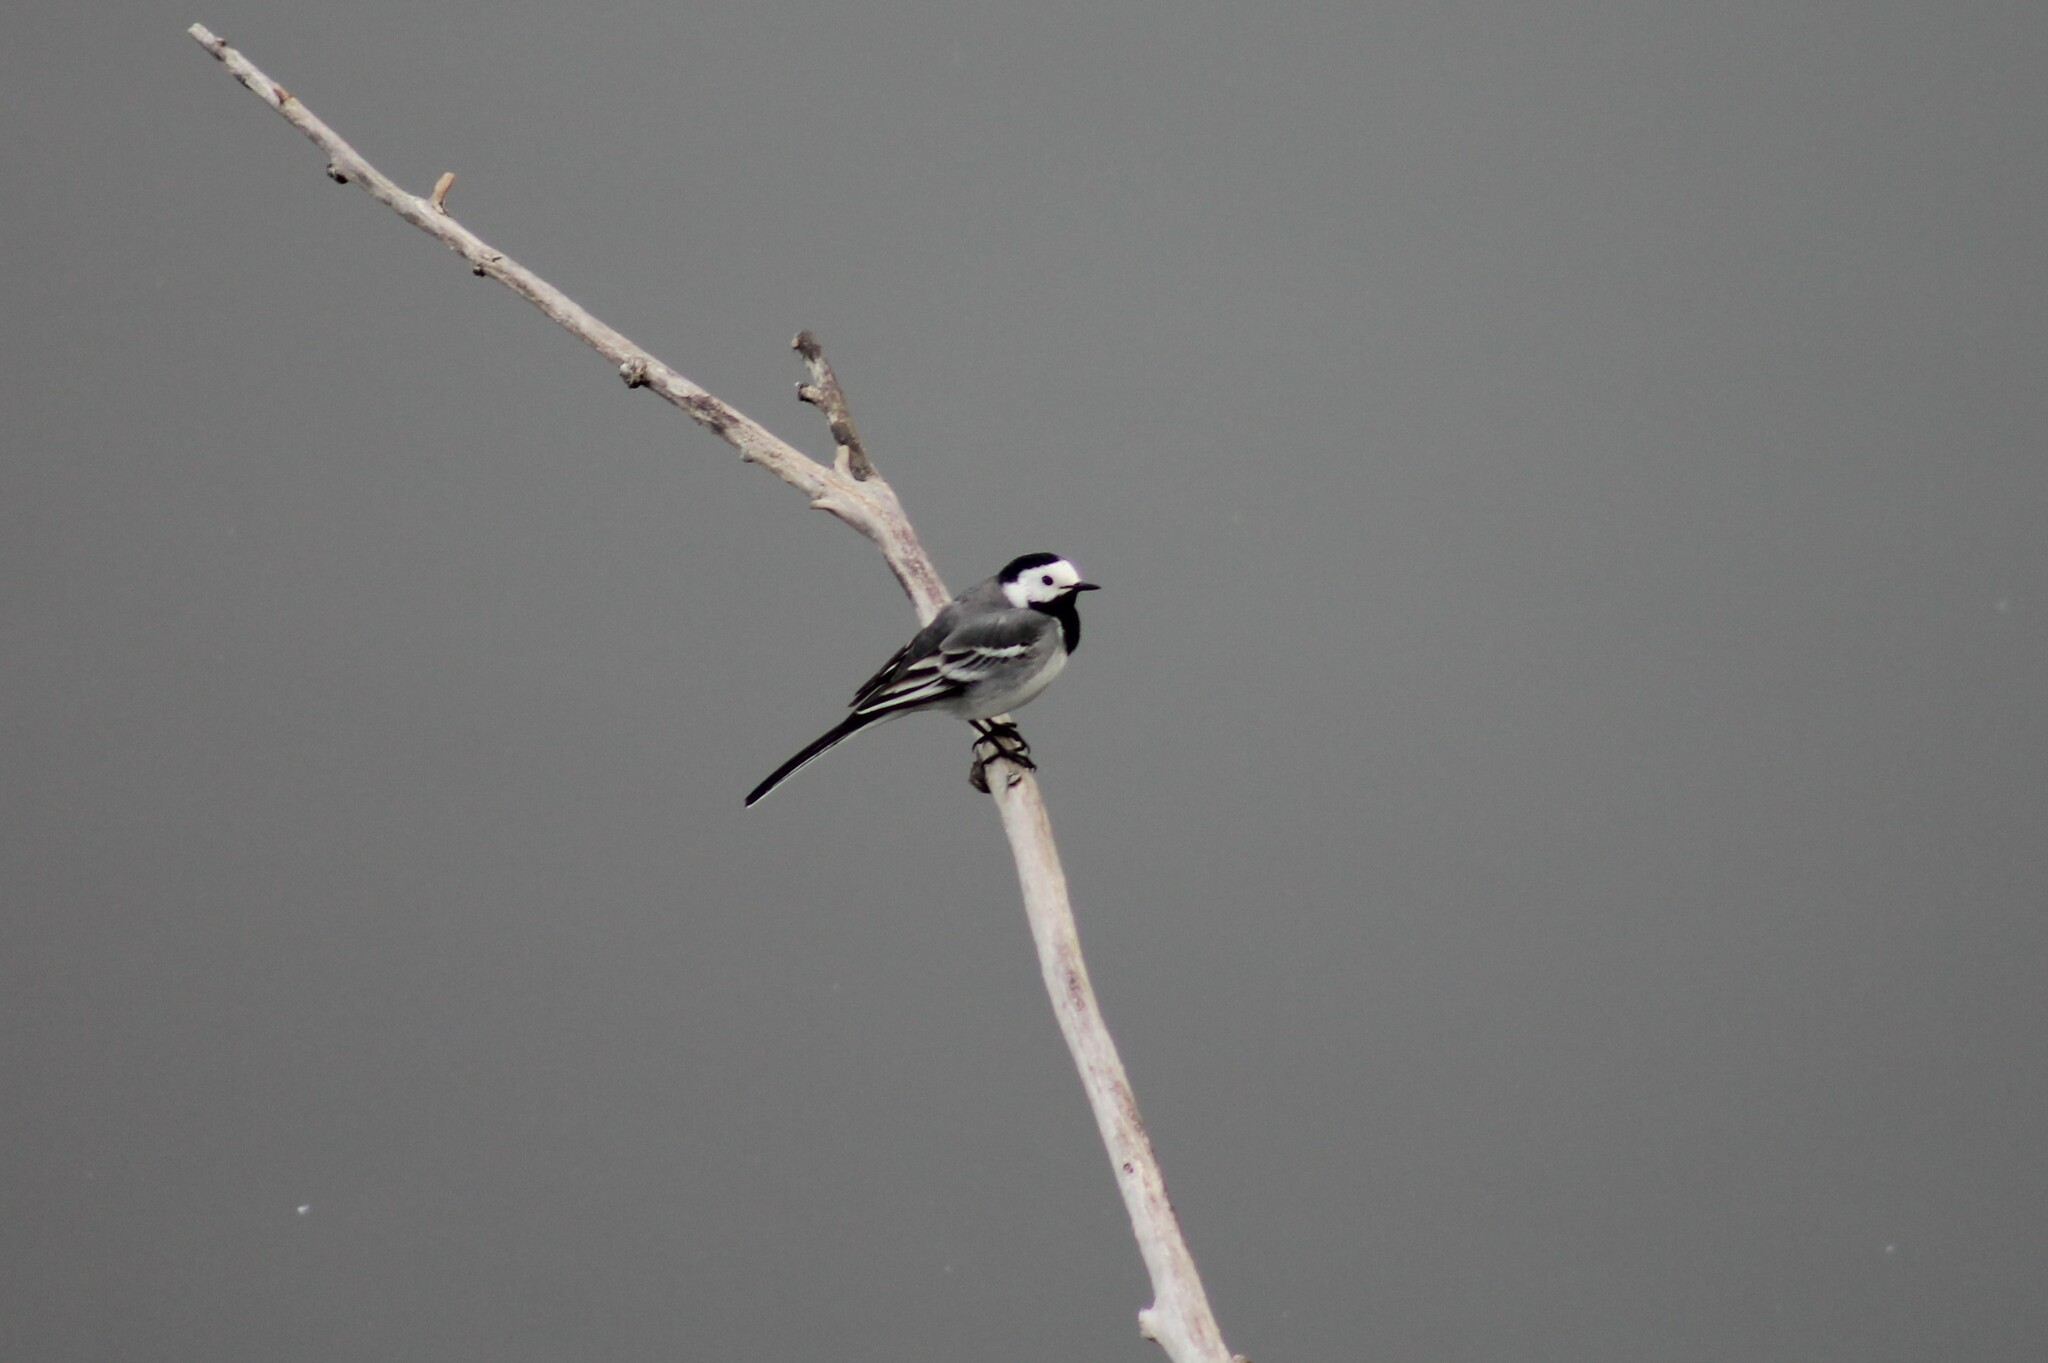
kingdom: Animalia
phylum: Chordata
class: Aves
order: Passeriformes
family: Motacillidae
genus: Motacilla
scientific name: Motacilla alba
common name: White wagtail
